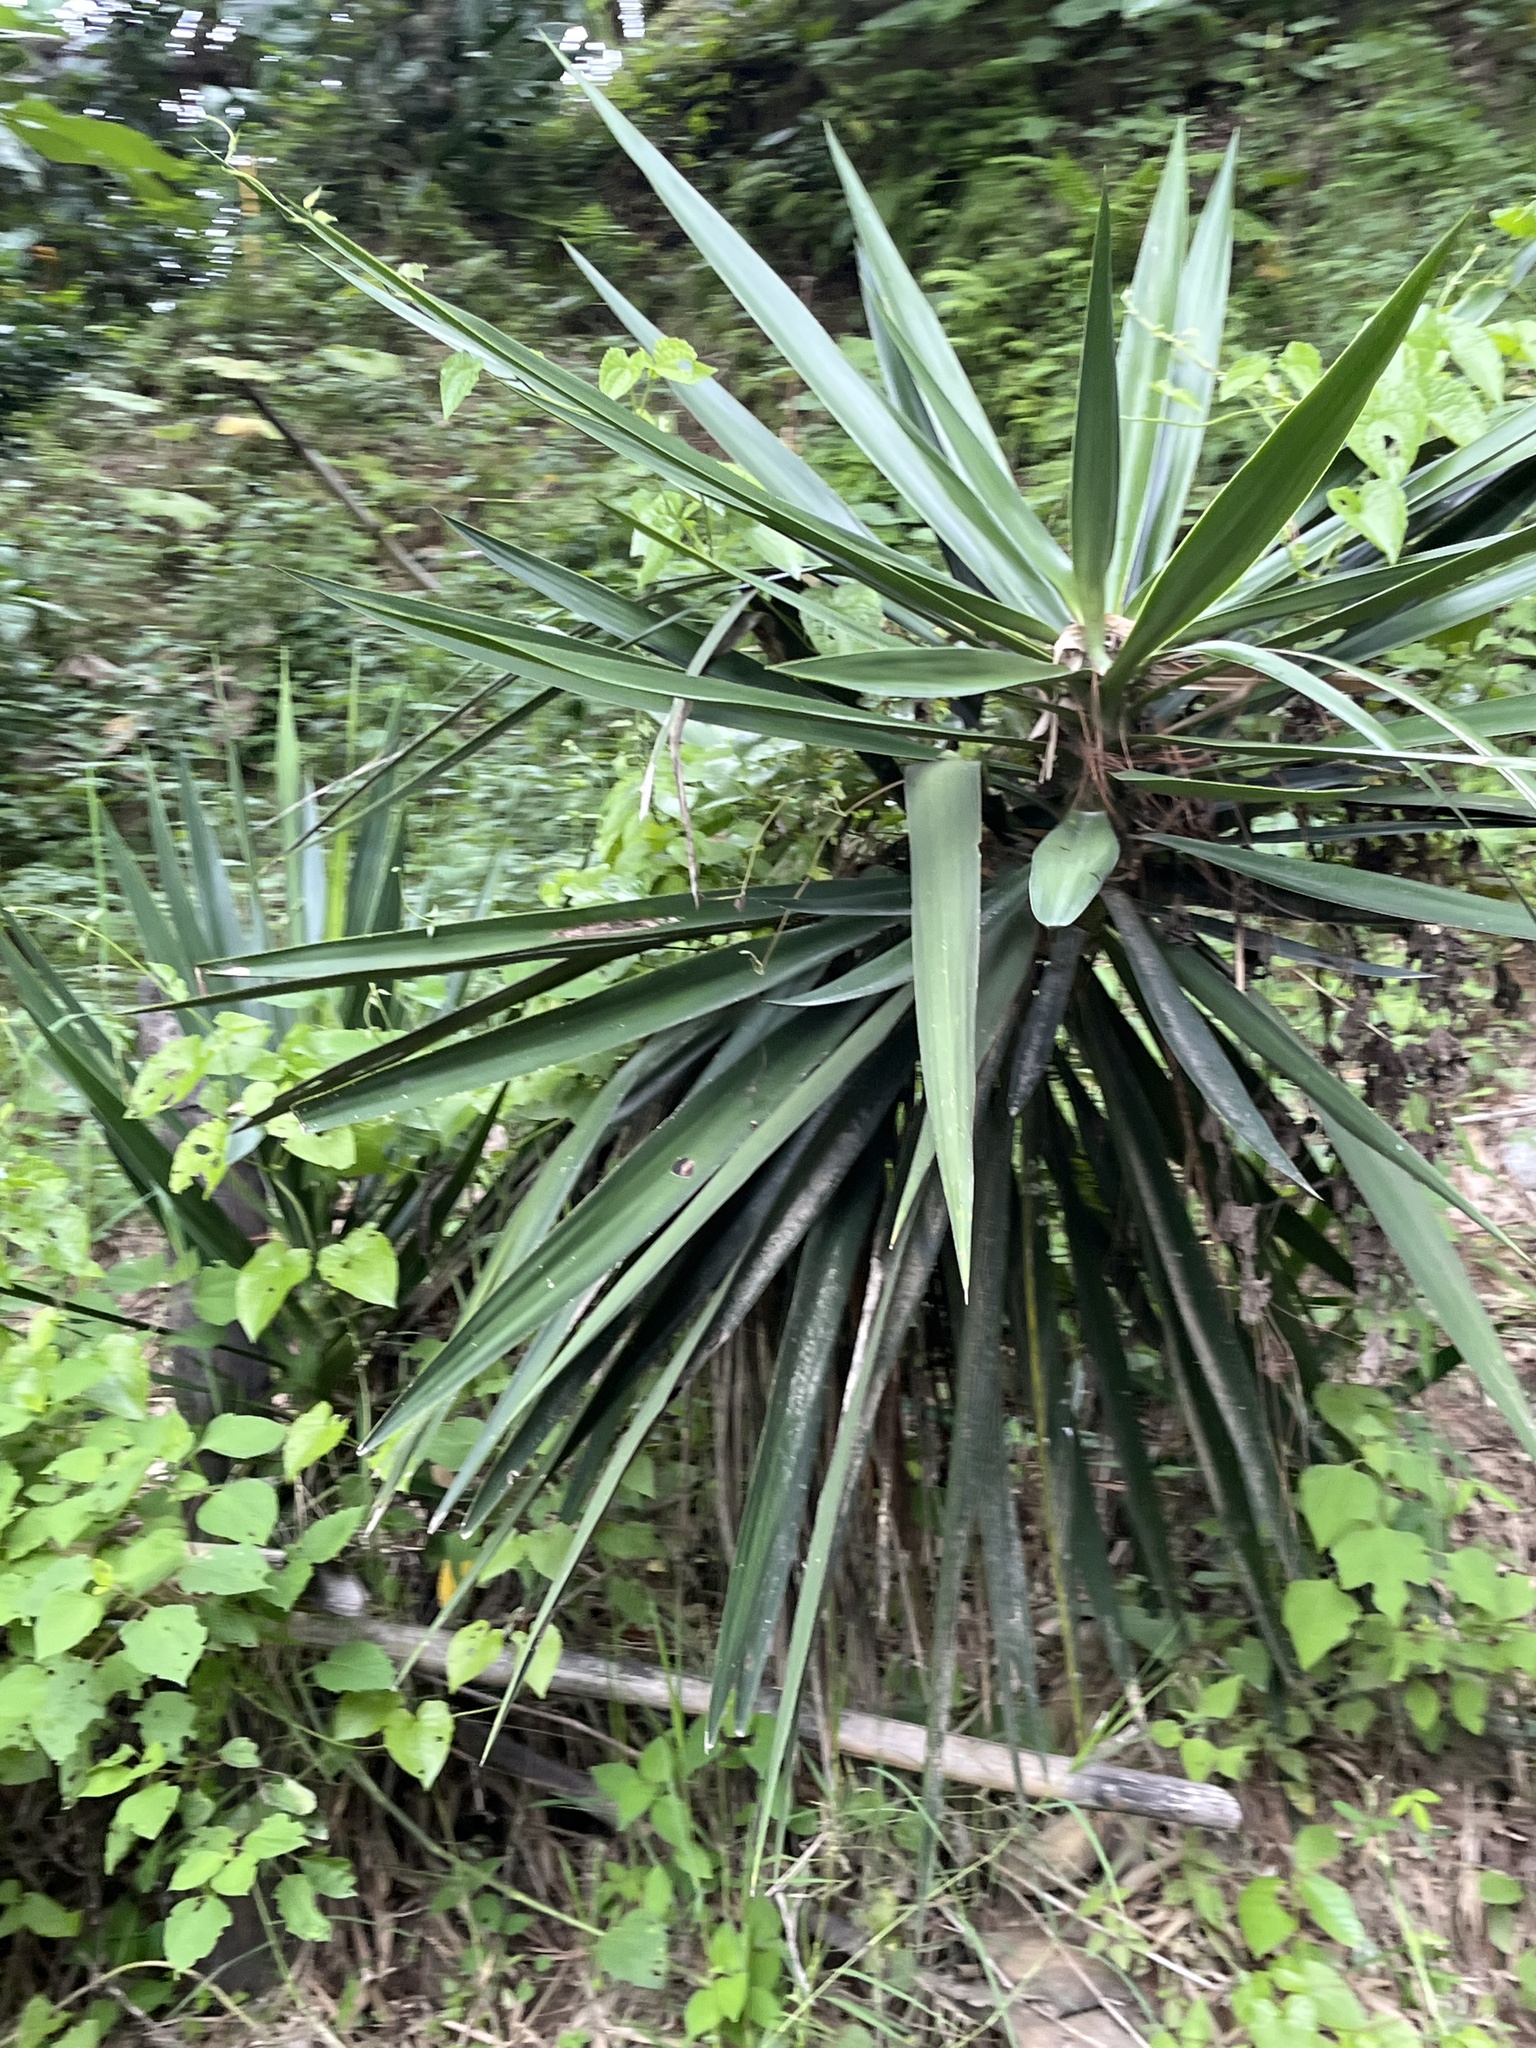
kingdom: Plantae
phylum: Tracheophyta
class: Liliopsida
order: Asparagales
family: Asparagaceae
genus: Yucca
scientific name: Yucca gigantea
